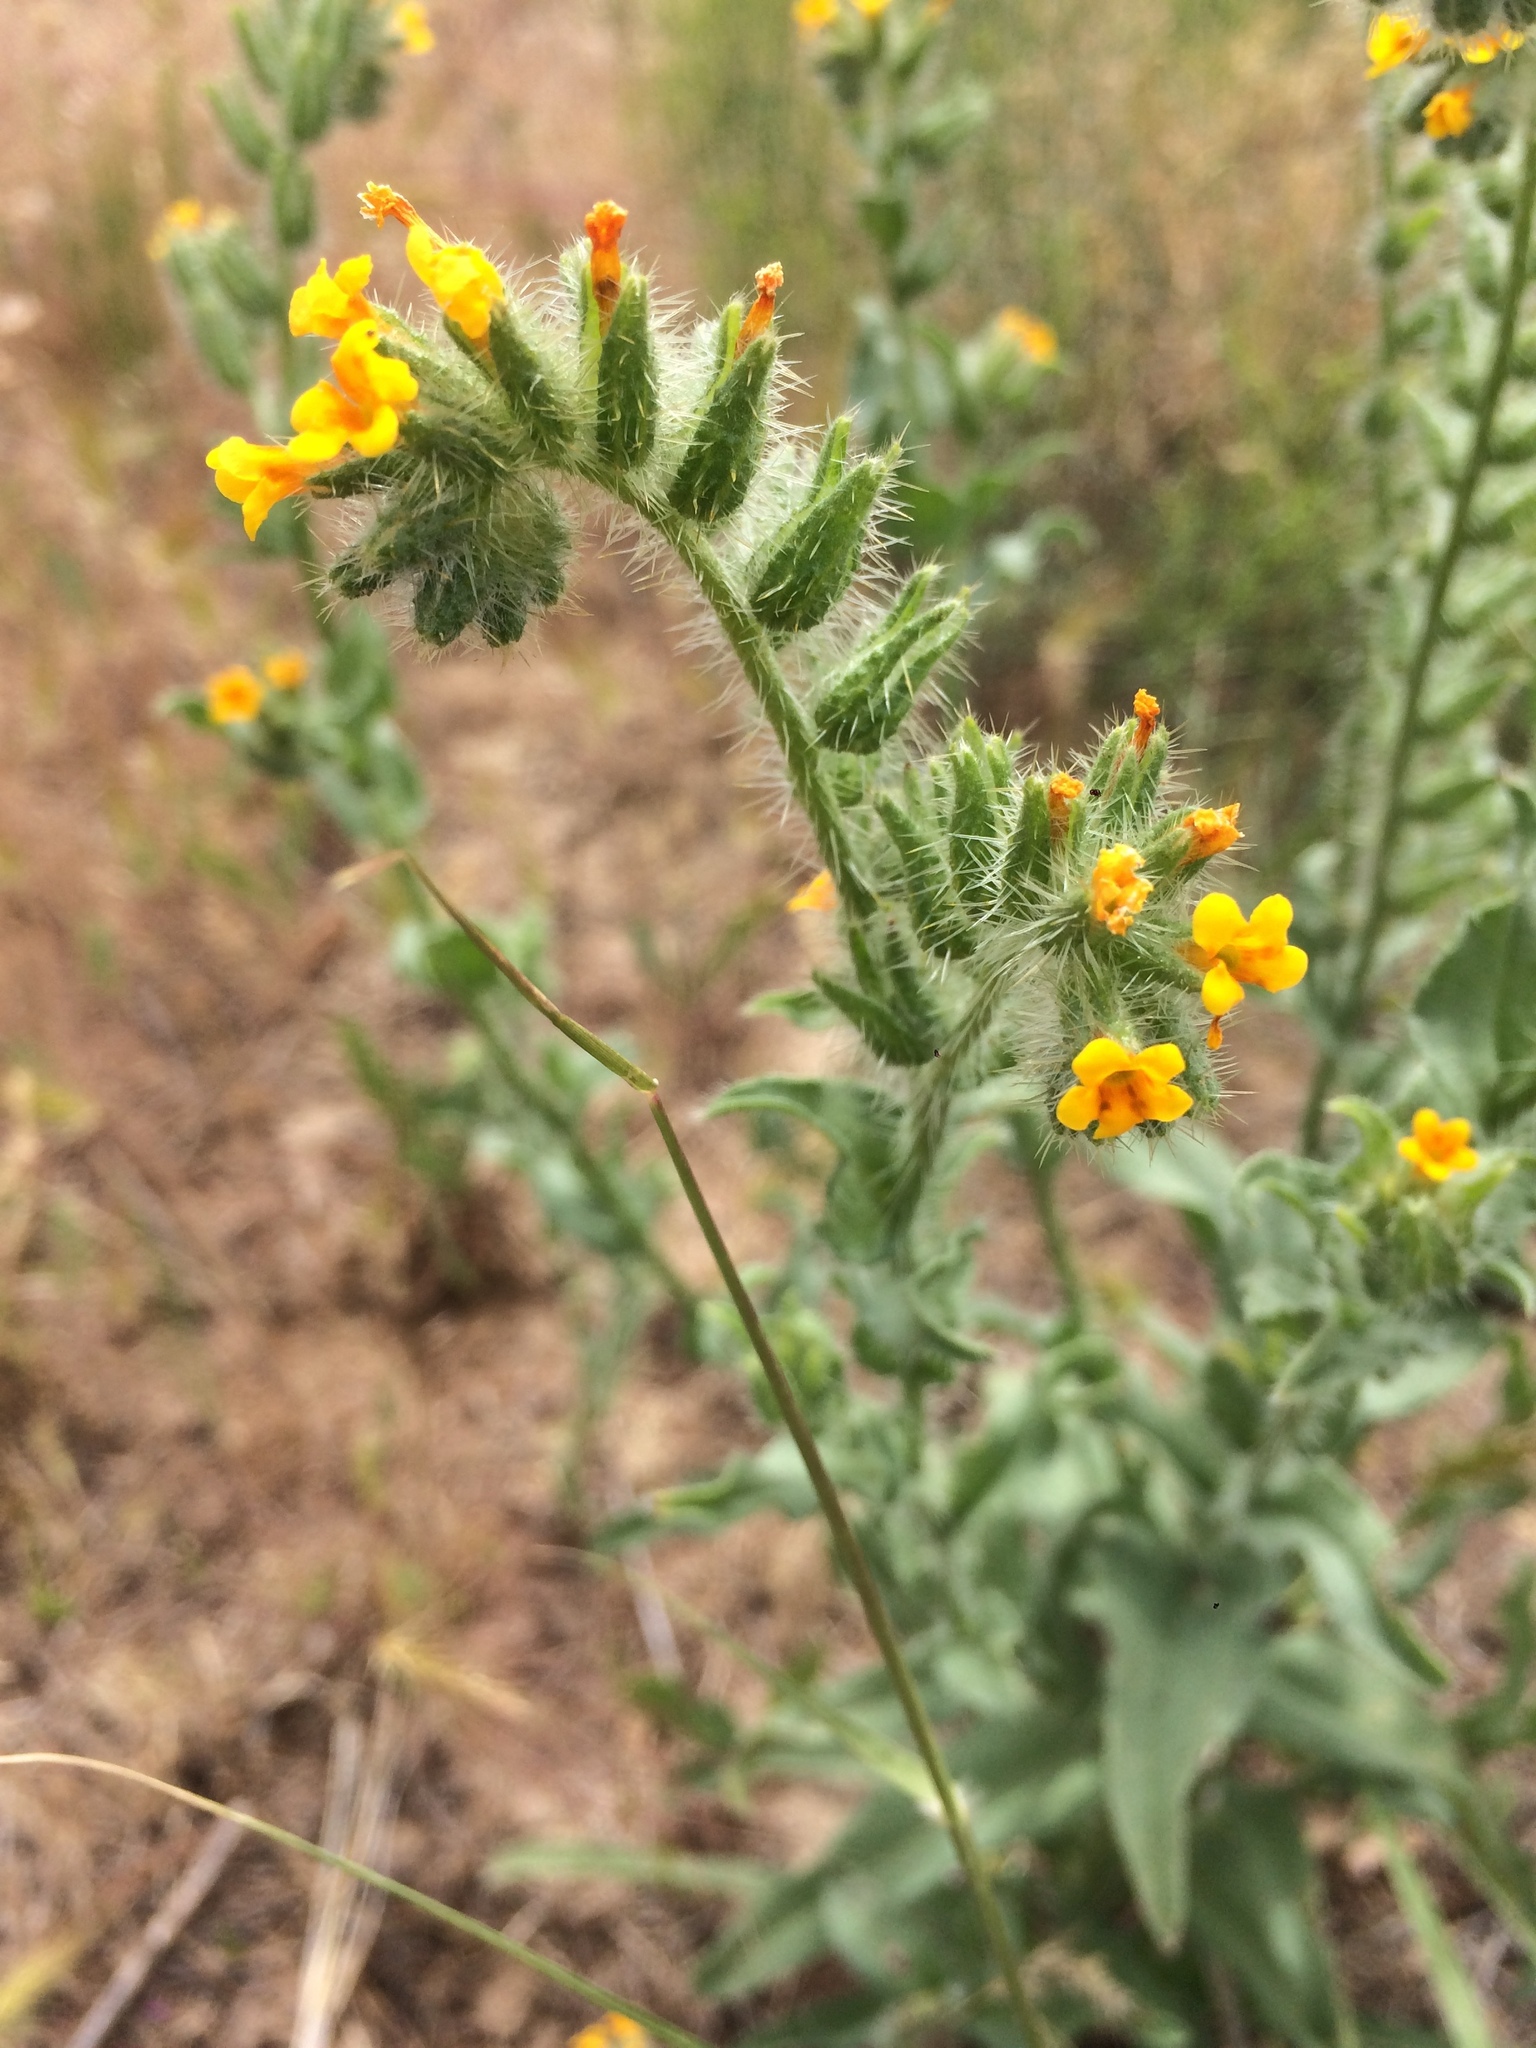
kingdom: Plantae
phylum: Tracheophyta
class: Magnoliopsida
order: Boraginales
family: Boraginaceae
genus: Amsinckia
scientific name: Amsinckia tessellata
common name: Tessellate fiddleneck
